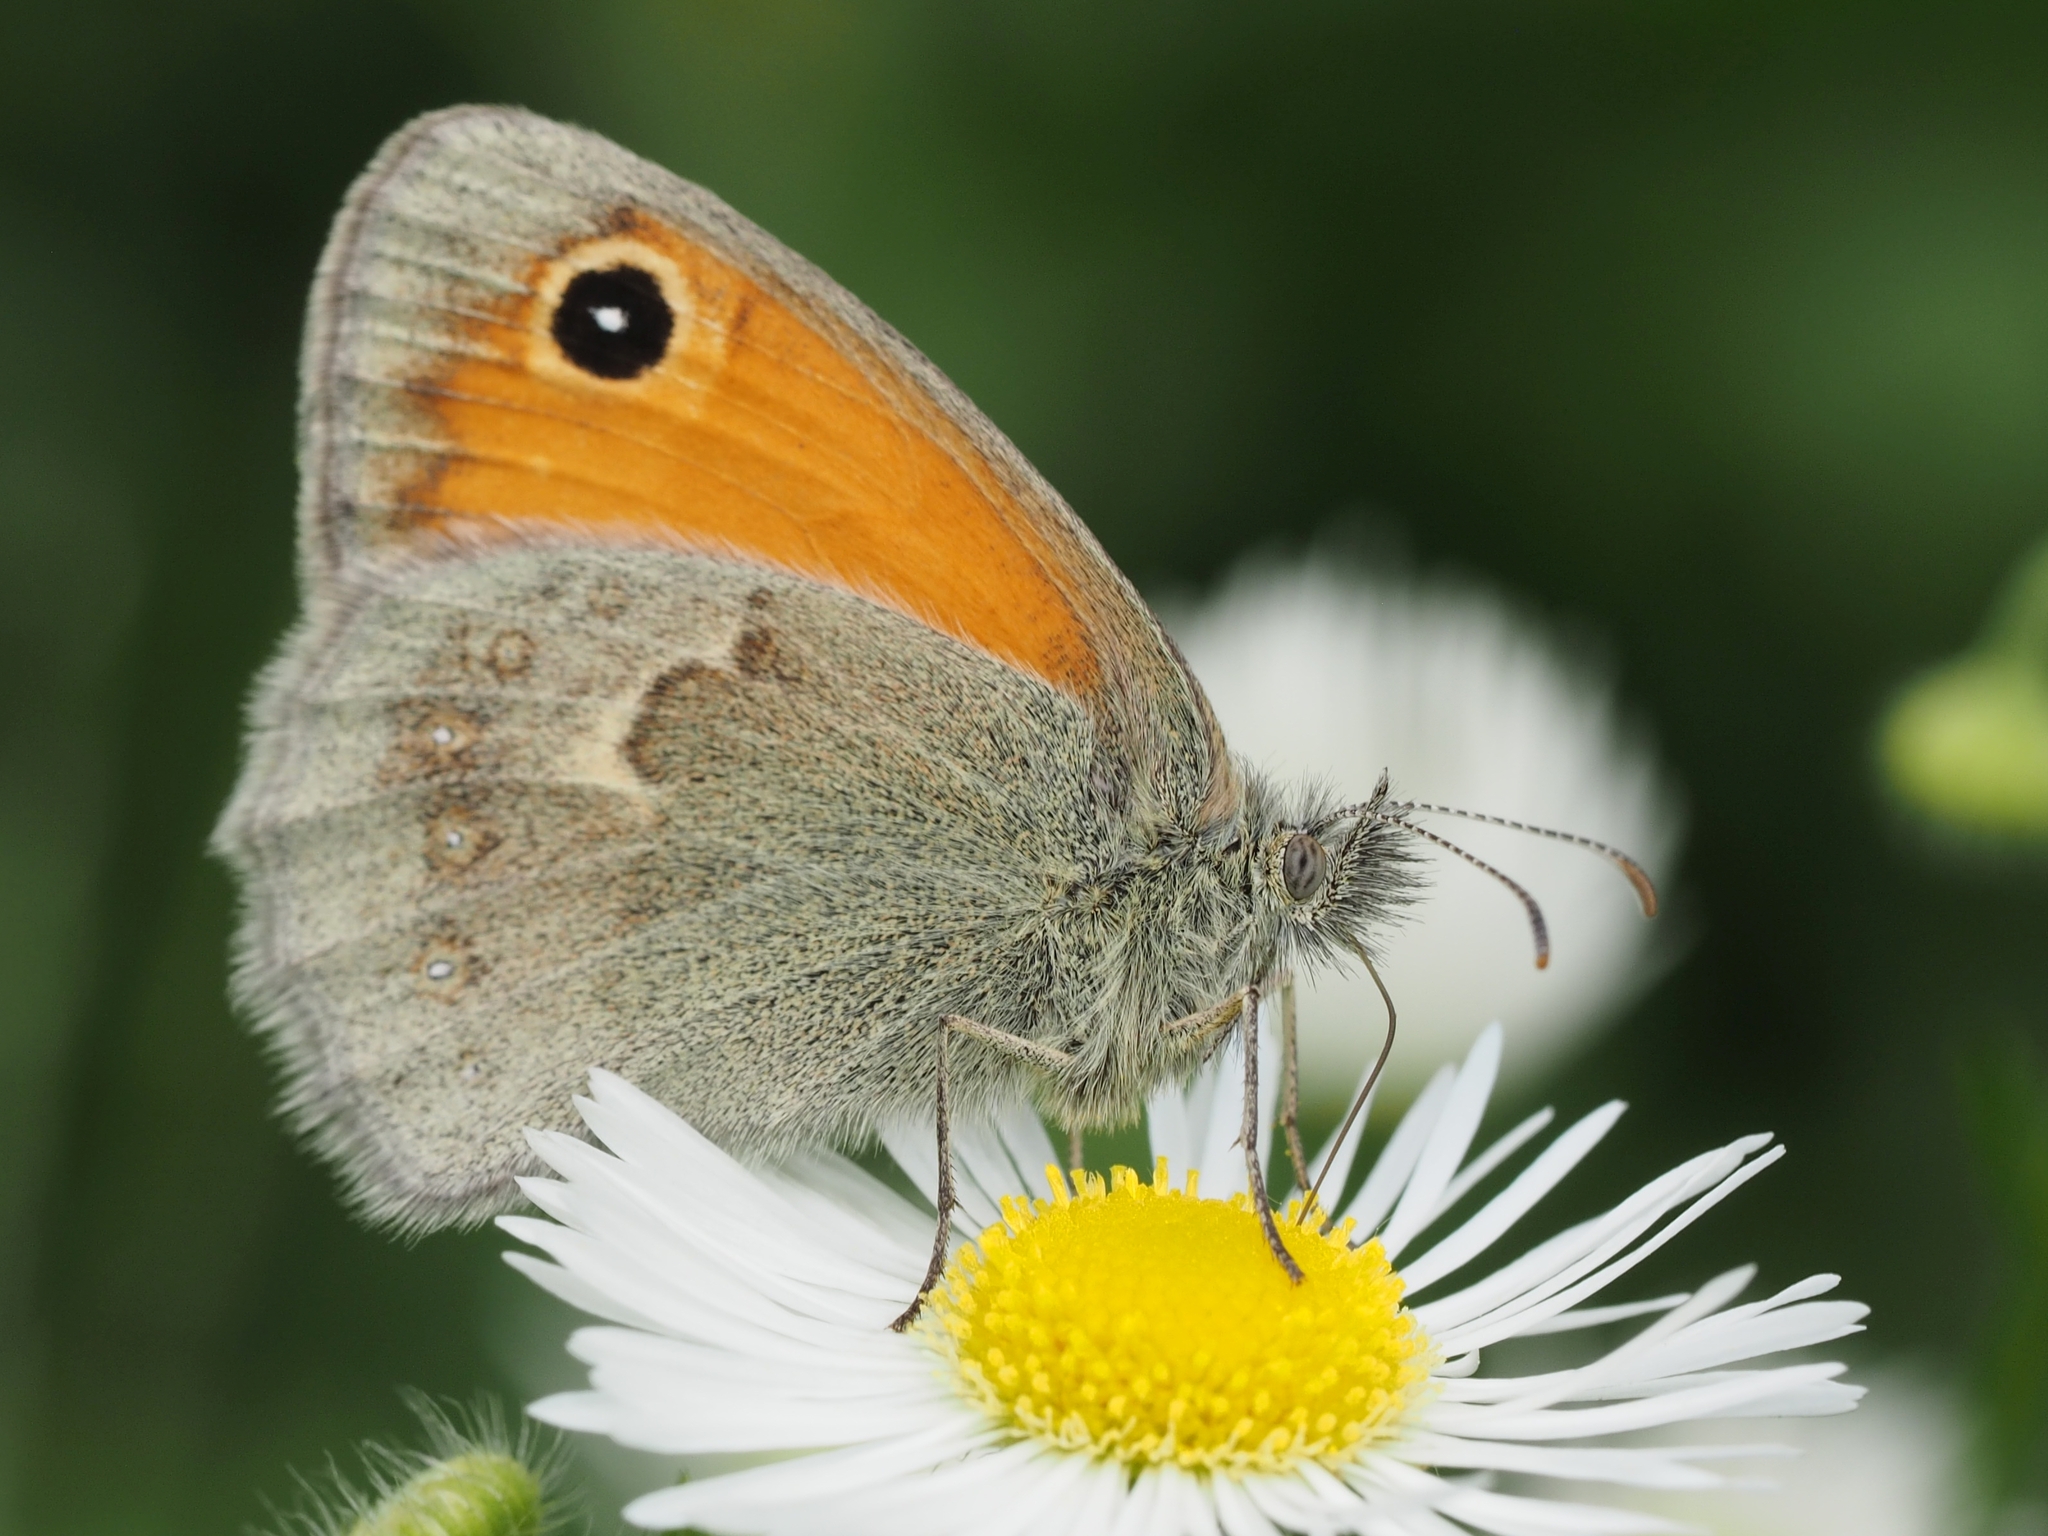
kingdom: Animalia
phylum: Arthropoda
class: Insecta
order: Lepidoptera
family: Nymphalidae
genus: Coenonympha
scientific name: Coenonympha pamphilus
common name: Small heath
